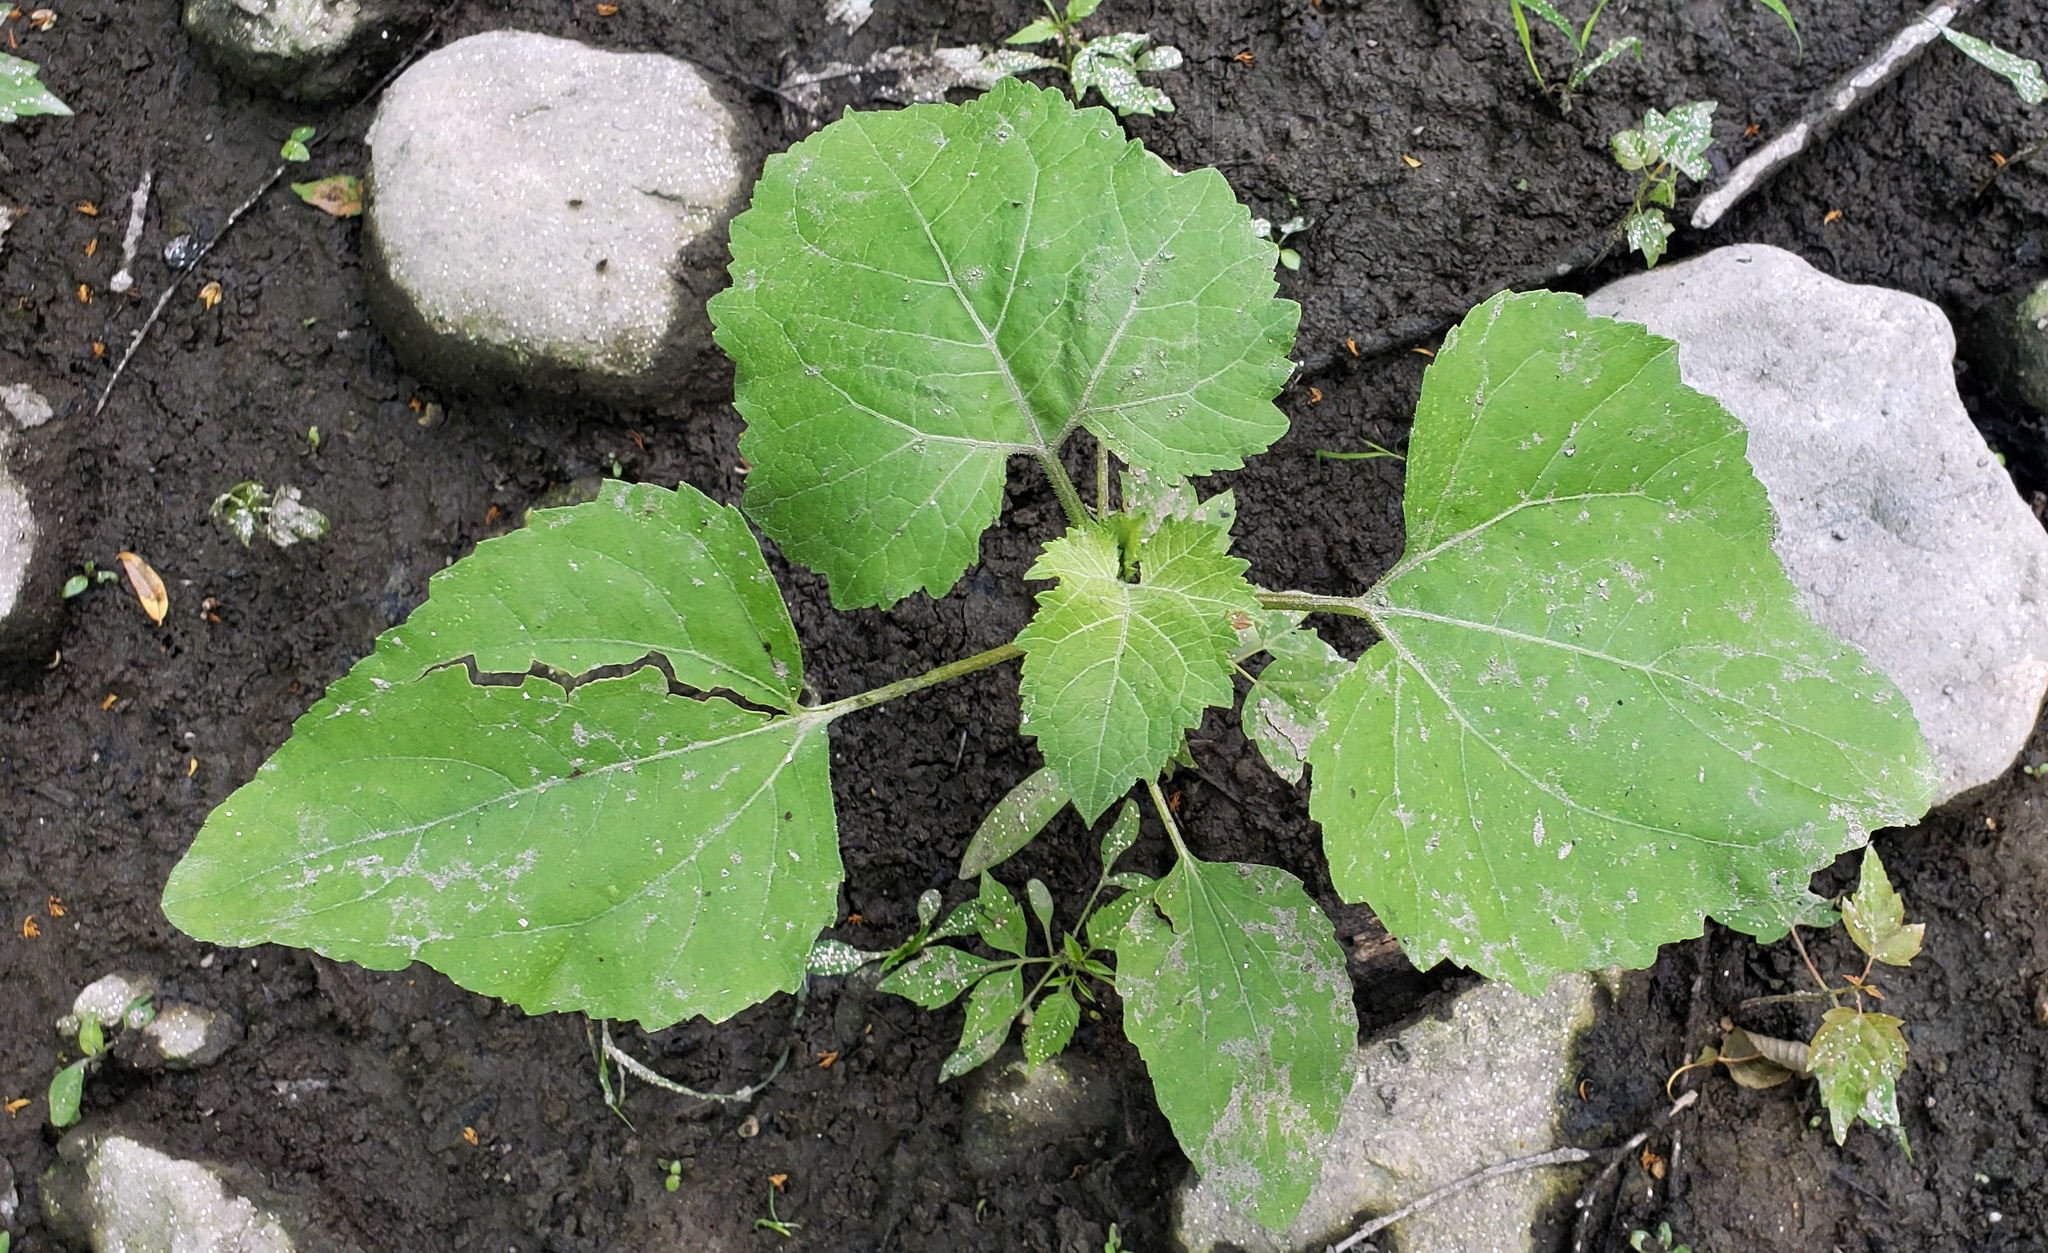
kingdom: Plantae
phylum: Tracheophyta
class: Magnoliopsida
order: Asterales
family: Asteraceae
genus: Xanthium
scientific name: Xanthium strumarium
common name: Rough cocklebur
